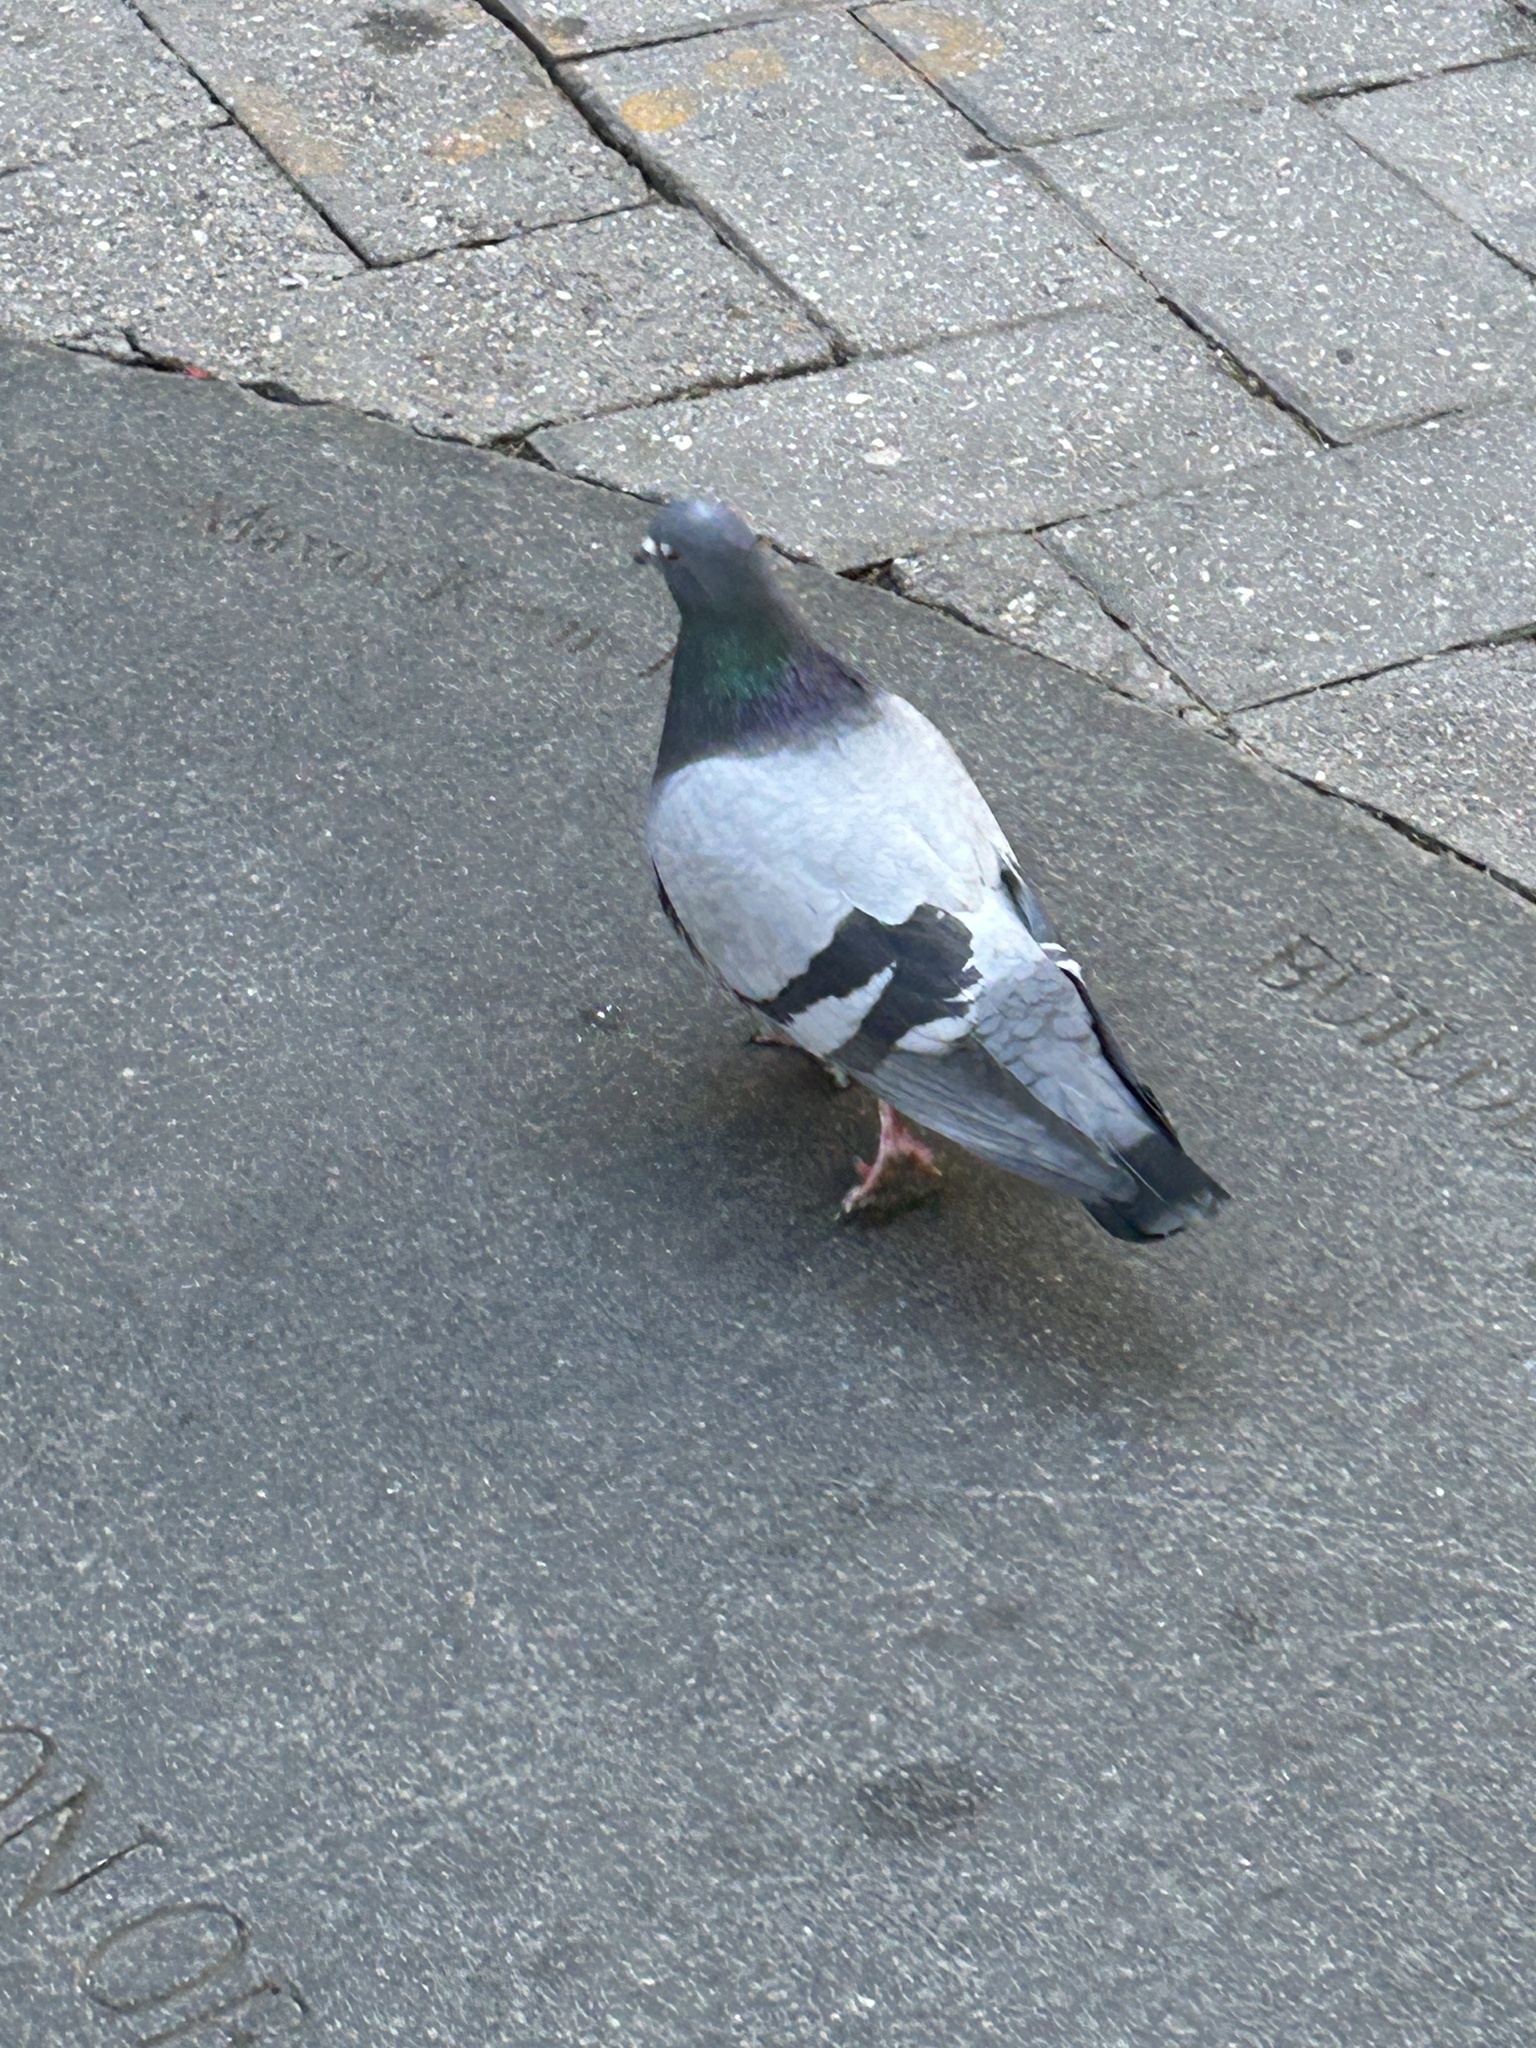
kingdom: Animalia
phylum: Chordata
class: Aves
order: Columbiformes
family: Columbidae
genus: Columba
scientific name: Columba livia
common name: Rock pigeon
